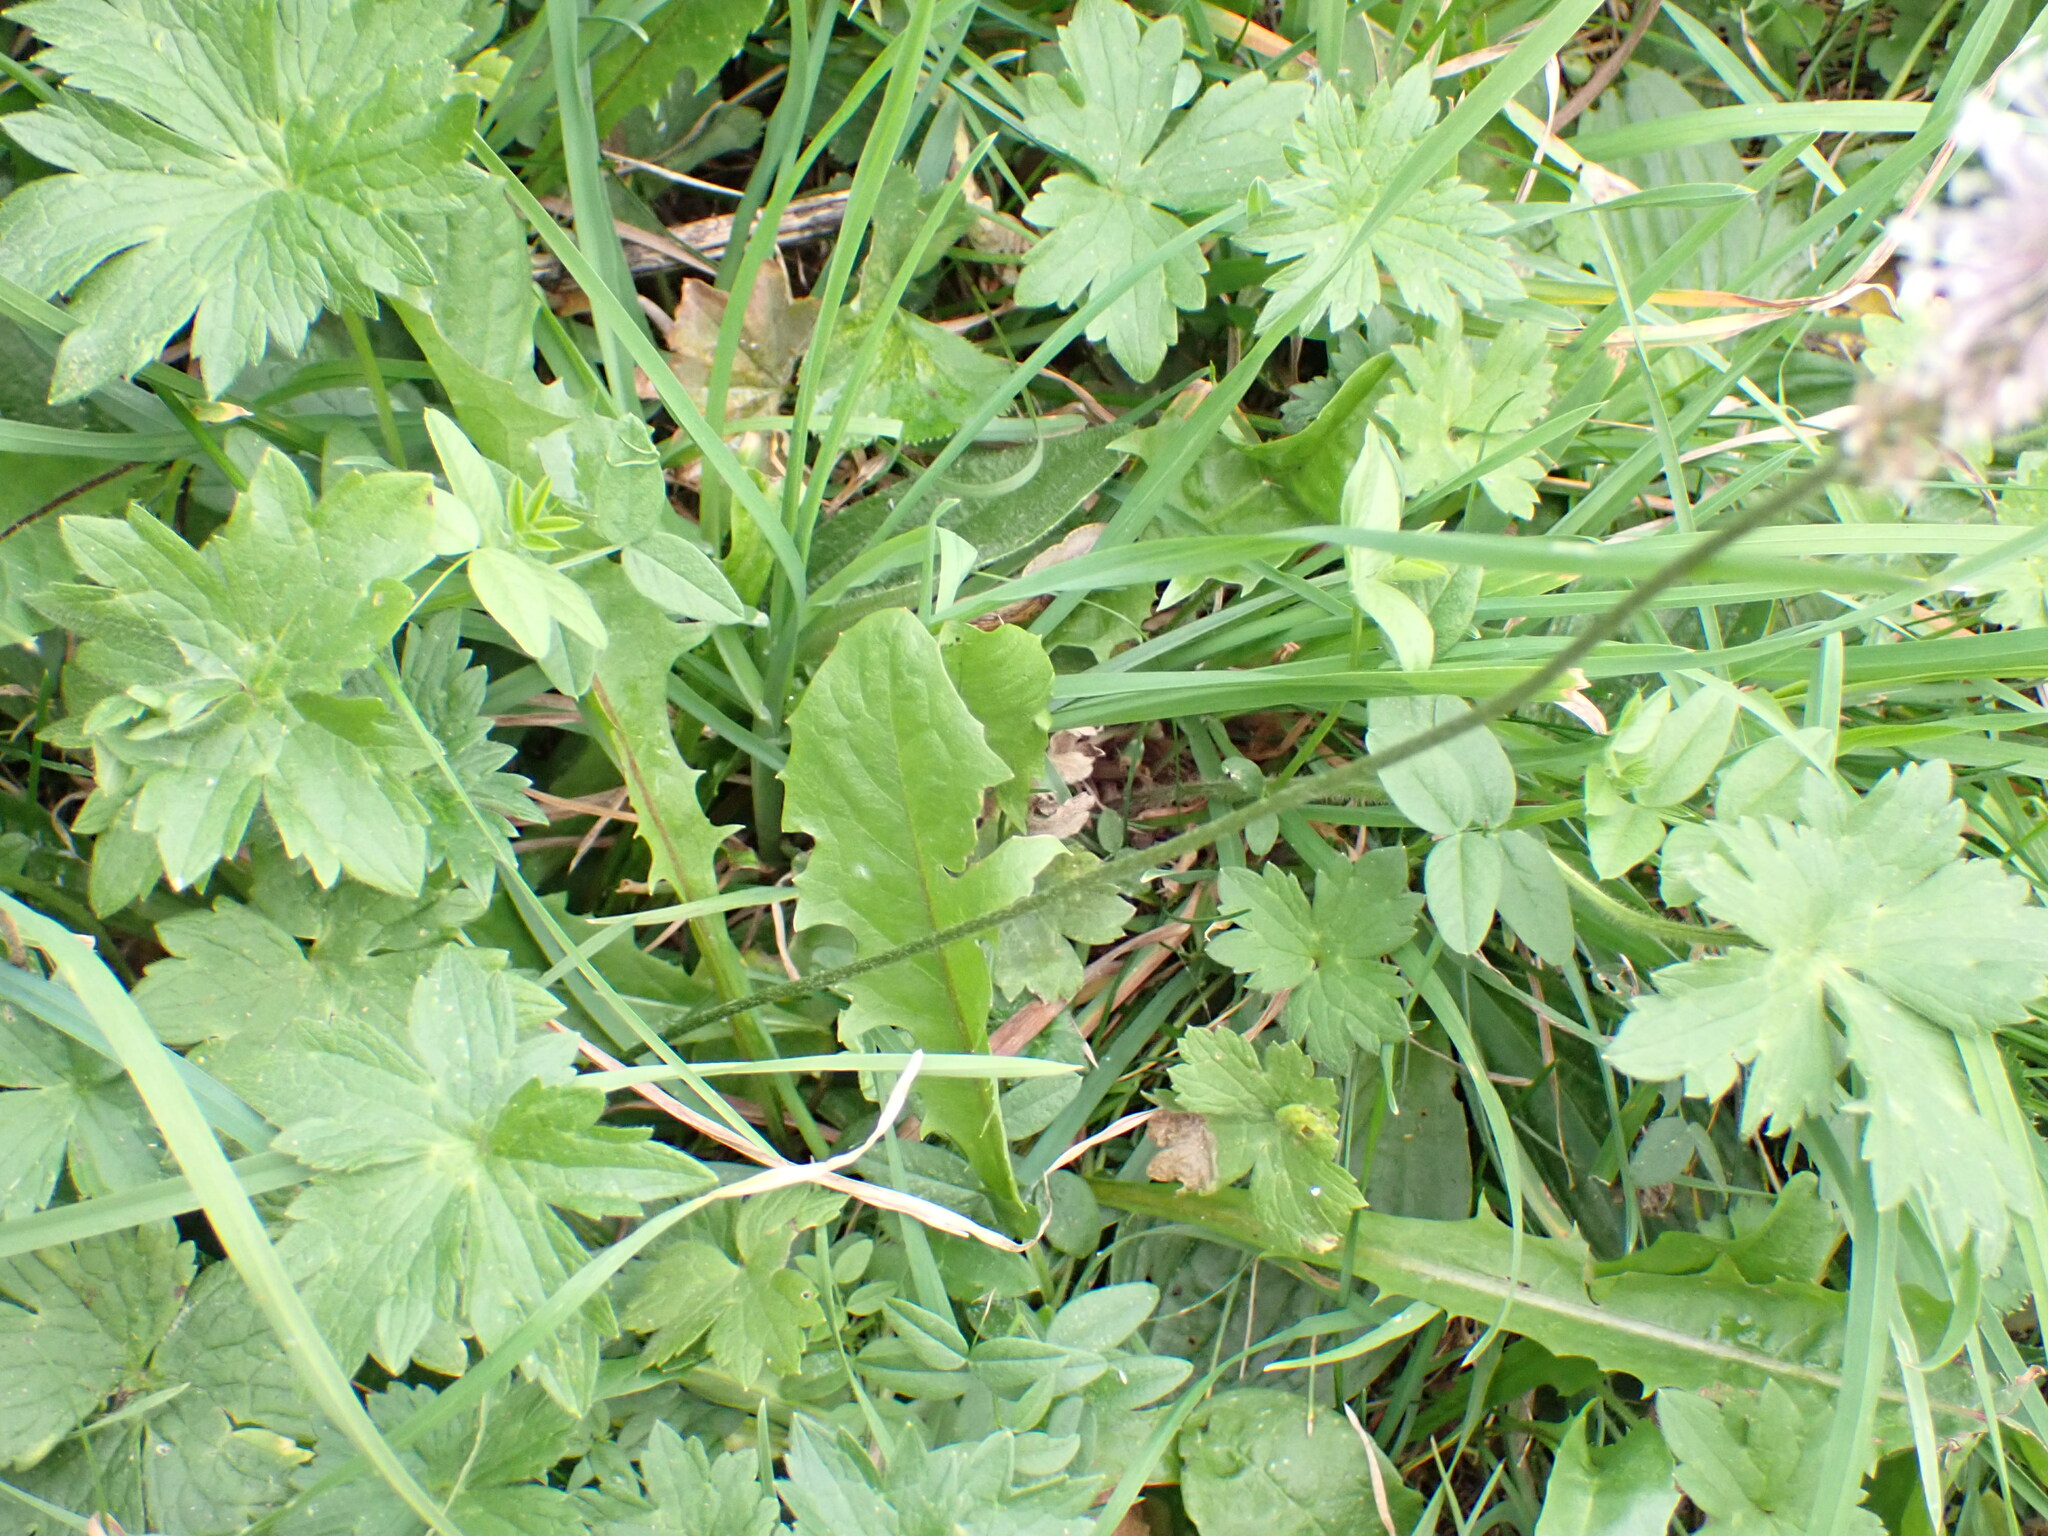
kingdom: Plantae
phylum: Tracheophyta
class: Magnoliopsida
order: Lamiales
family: Plantaginaceae
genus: Plantago
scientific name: Plantago media
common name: Hoary plantain
